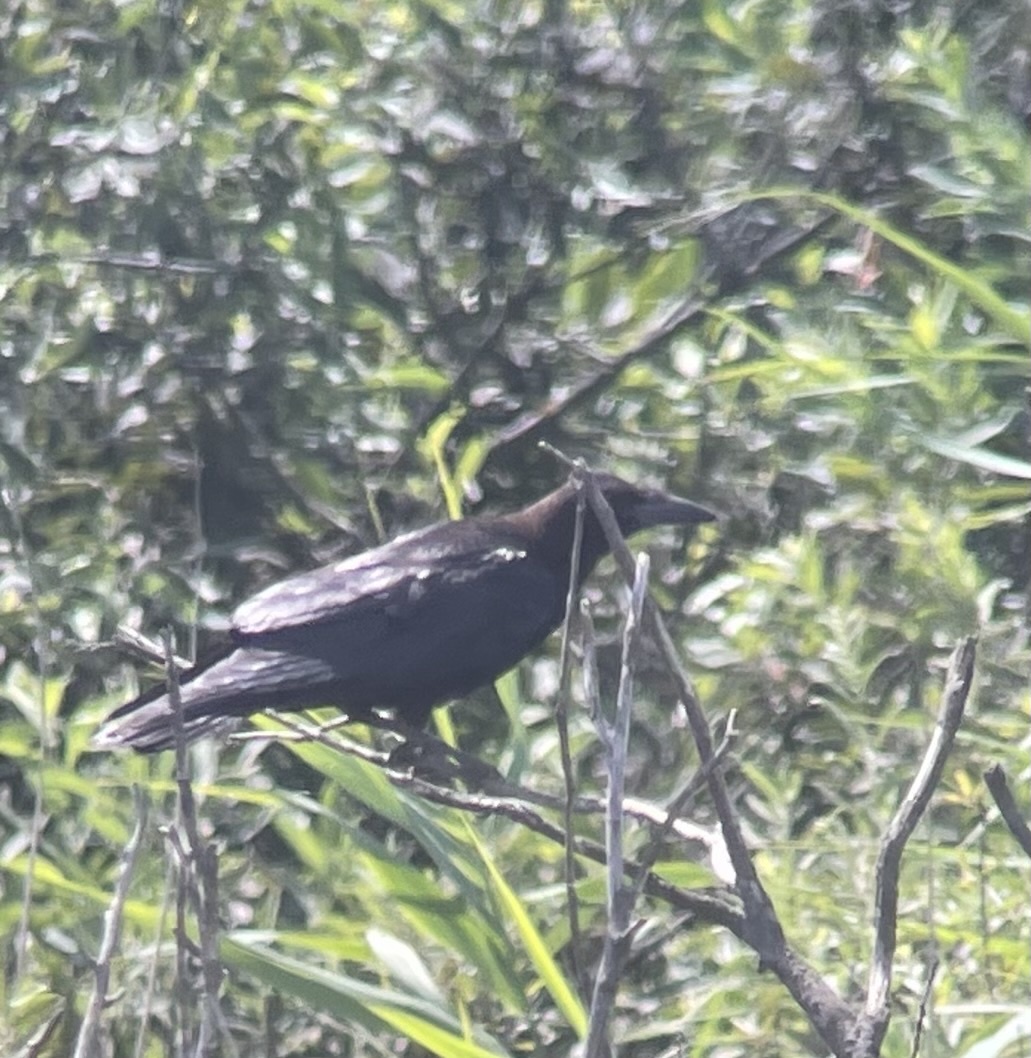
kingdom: Animalia
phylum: Chordata
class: Aves
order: Passeriformes
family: Corvidae
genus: Corvus
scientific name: Corvus frugilegus
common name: Rook
